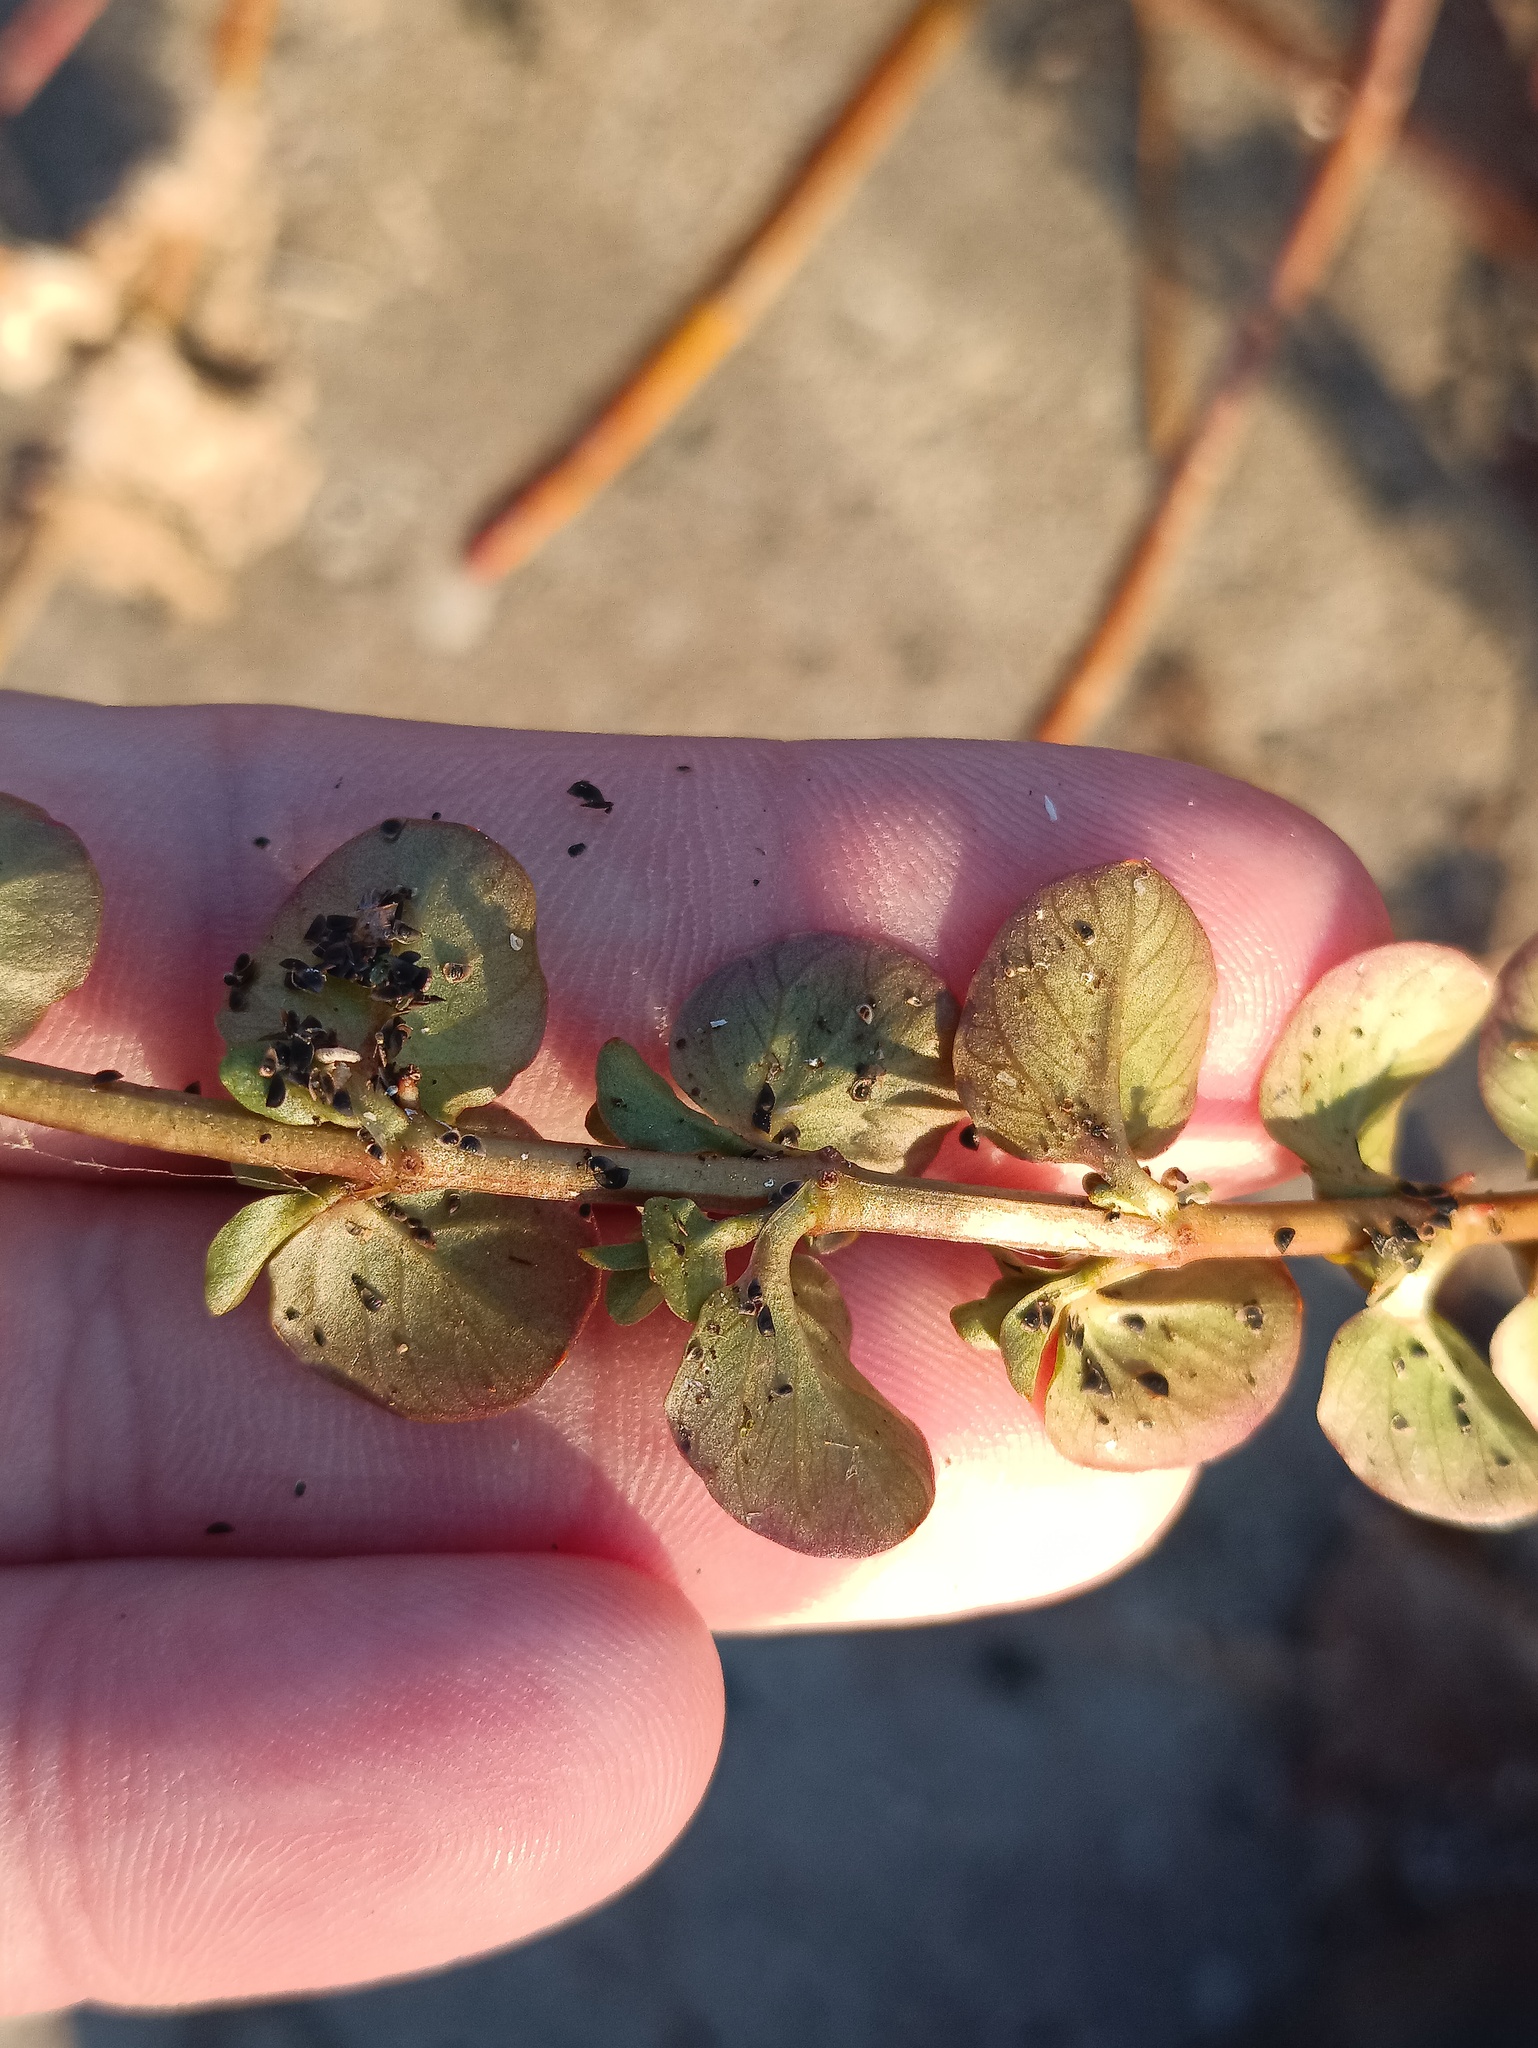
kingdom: Plantae
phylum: Tracheophyta
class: Magnoliopsida
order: Ericales
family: Primulaceae
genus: Lysimachia
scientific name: Lysimachia nummularia
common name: Moneywort
